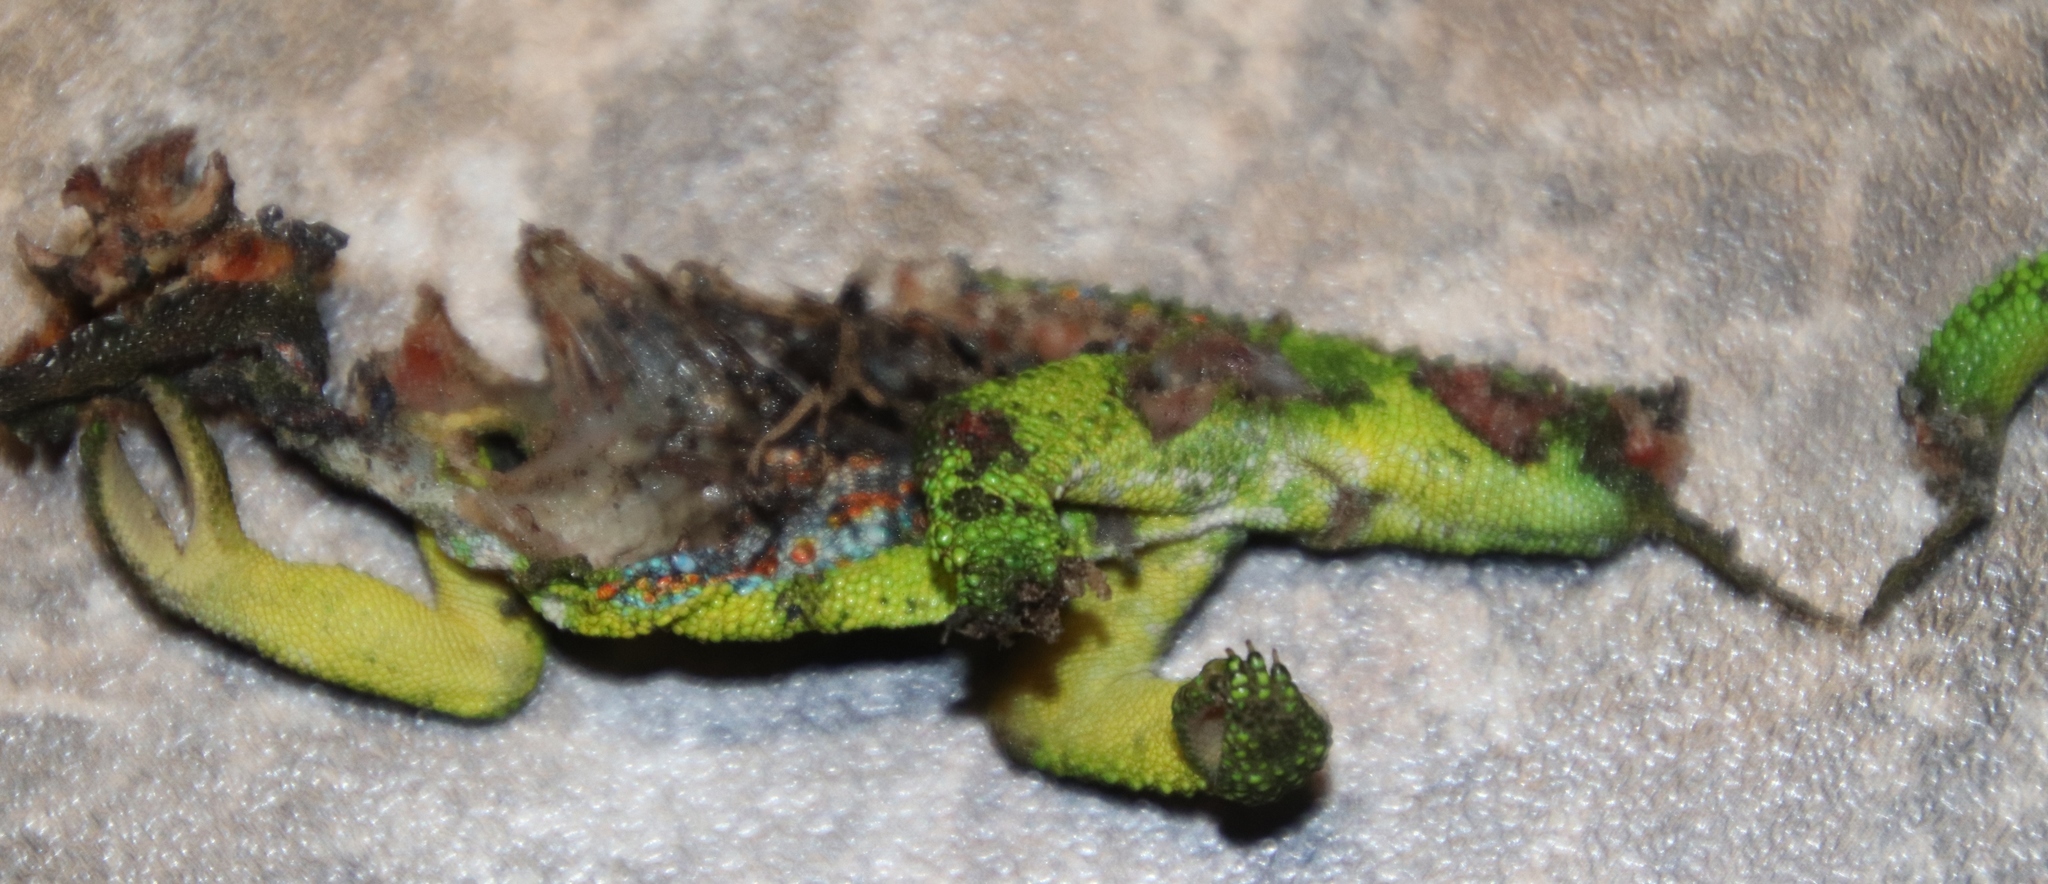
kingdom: Animalia
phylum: Chordata
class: Squamata
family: Chamaeleonidae
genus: Bradypodion
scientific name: Bradypodion pumilum
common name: Cape dwarf chameleon
